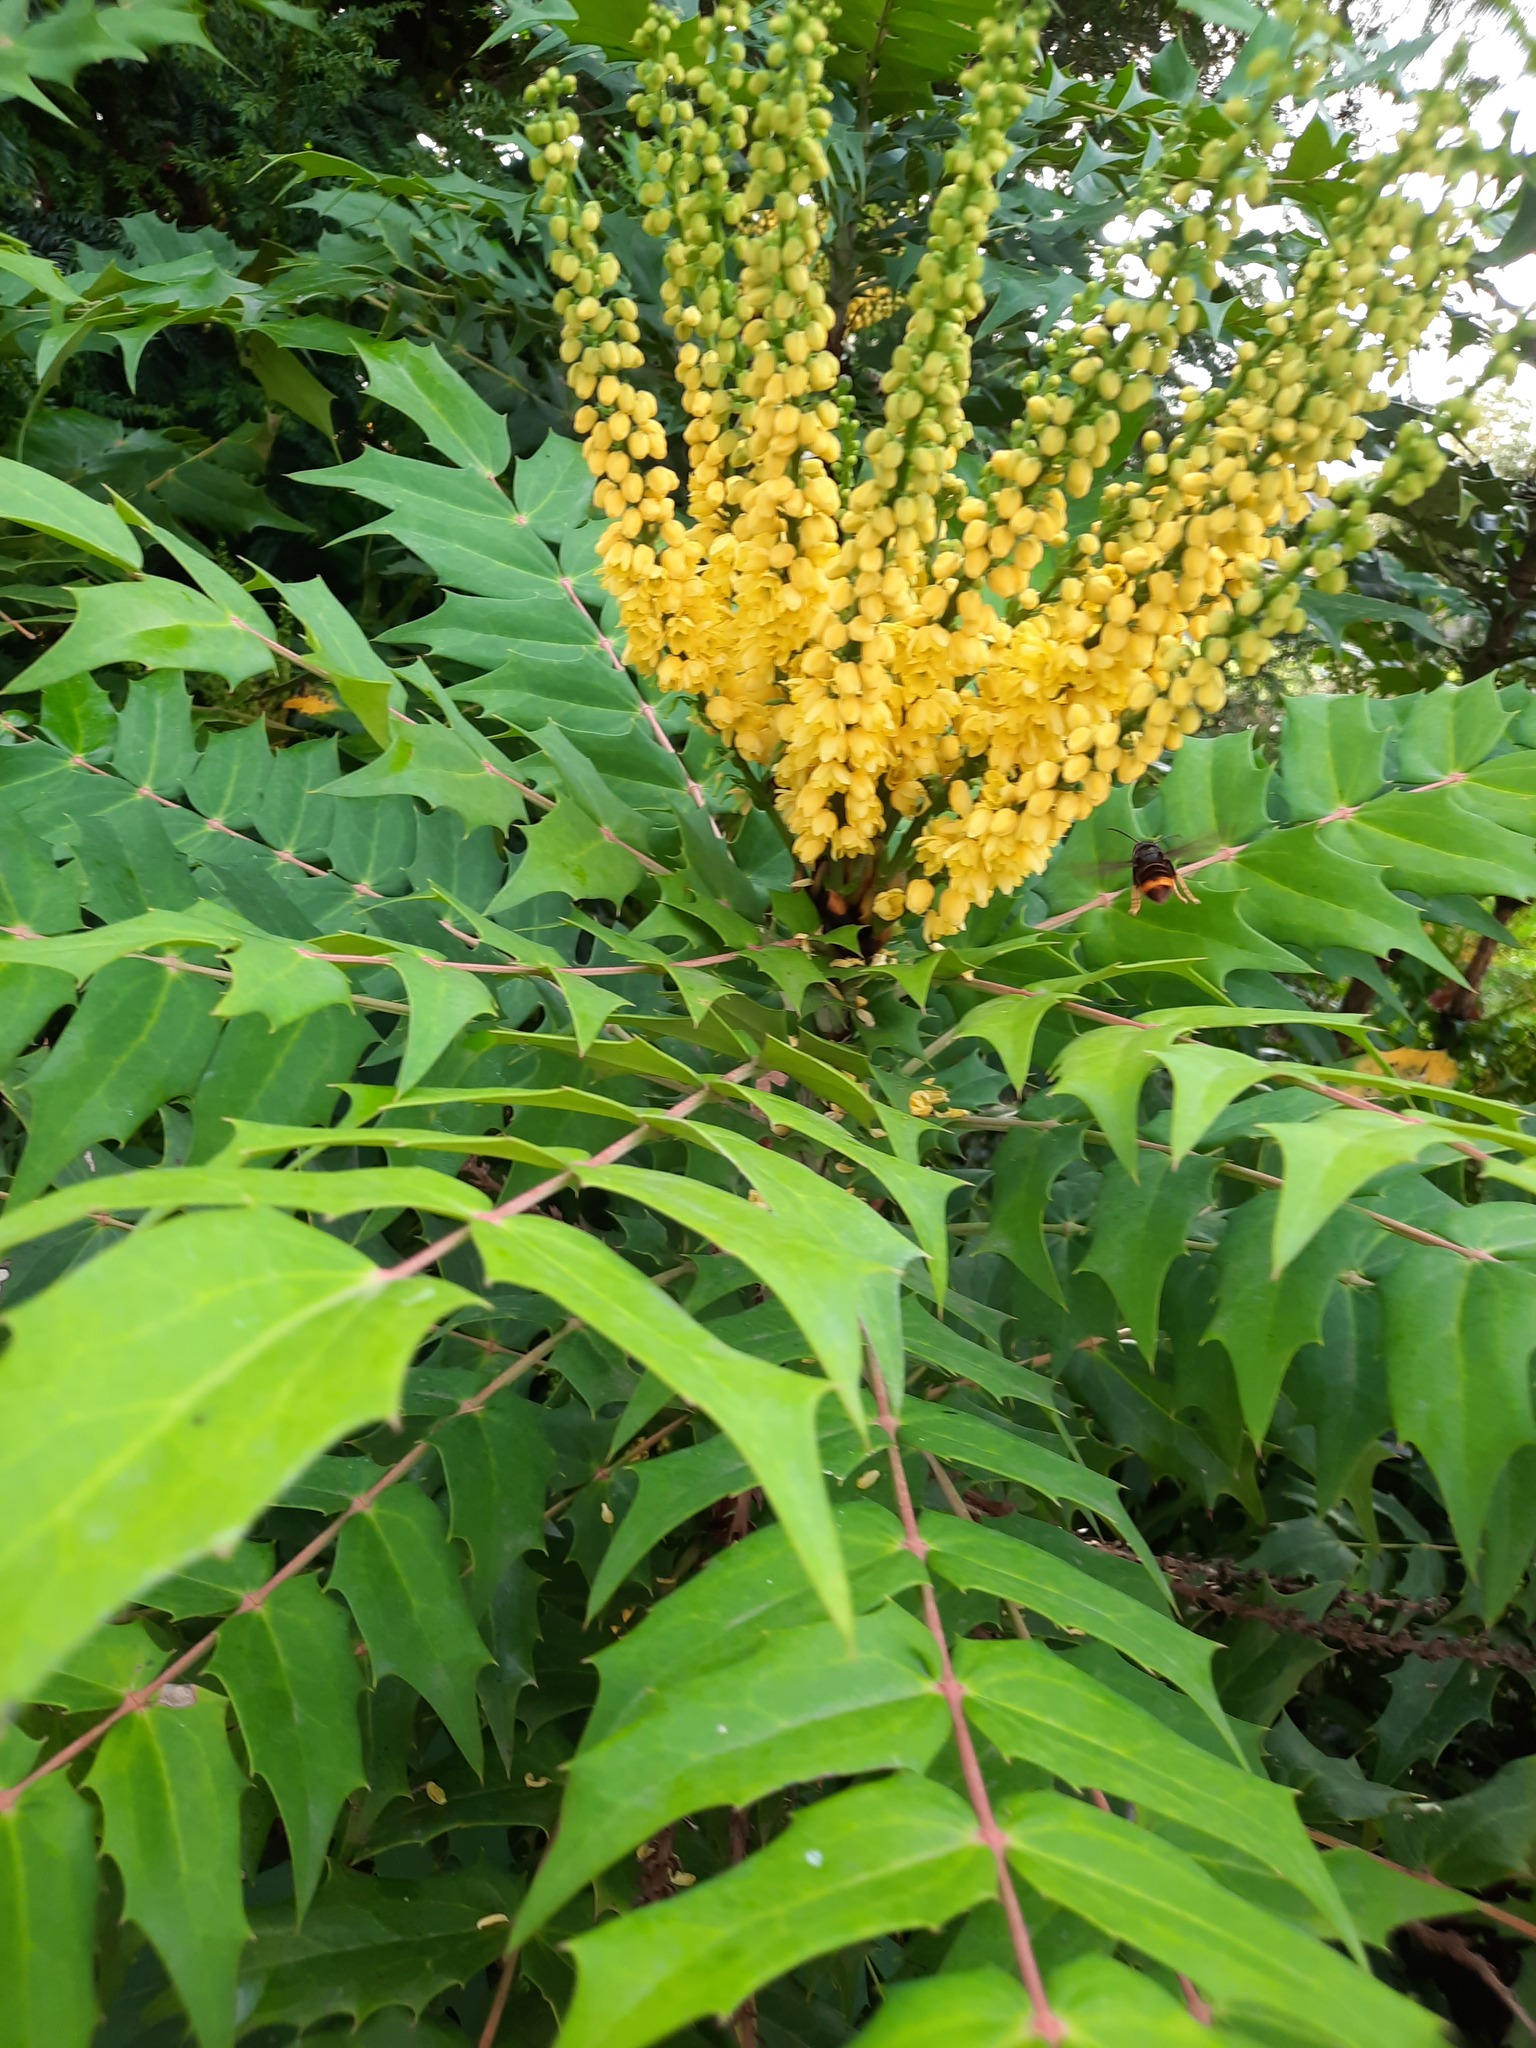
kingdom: Animalia
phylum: Arthropoda
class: Insecta
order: Hymenoptera
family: Vespidae
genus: Vespa
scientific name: Vespa velutina
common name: Asian hornet
